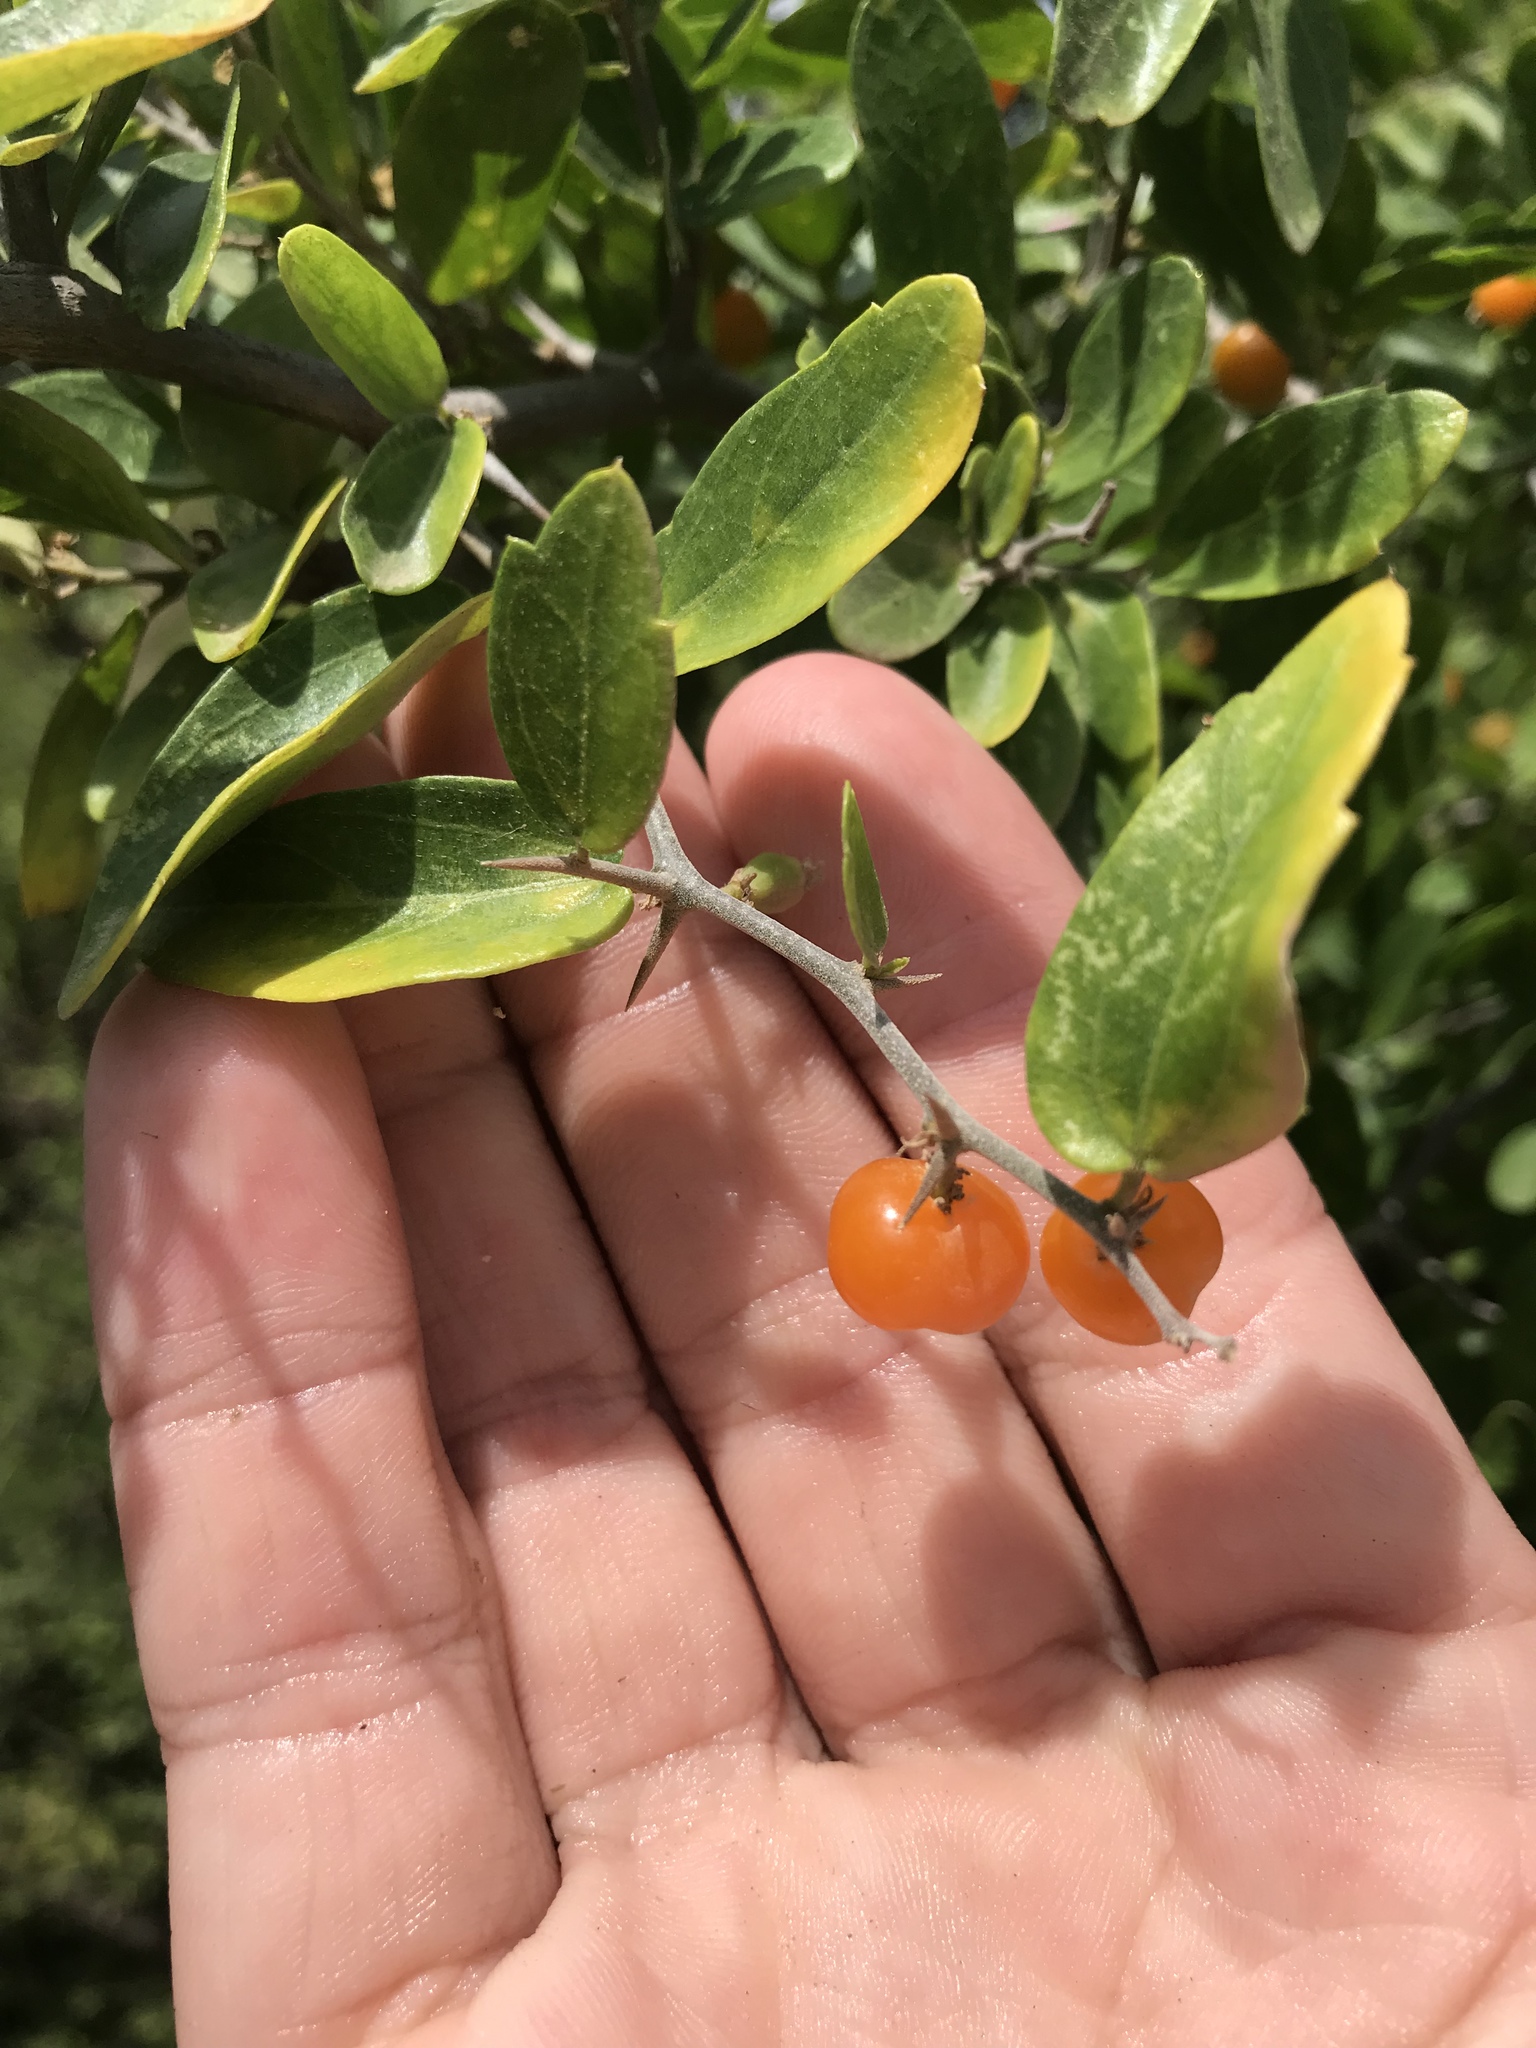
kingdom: Plantae
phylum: Tracheophyta
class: Magnoliopsida
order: Rosales
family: Cannabaceae
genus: Celtis
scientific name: Celtis pallida
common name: Desert hackberry
